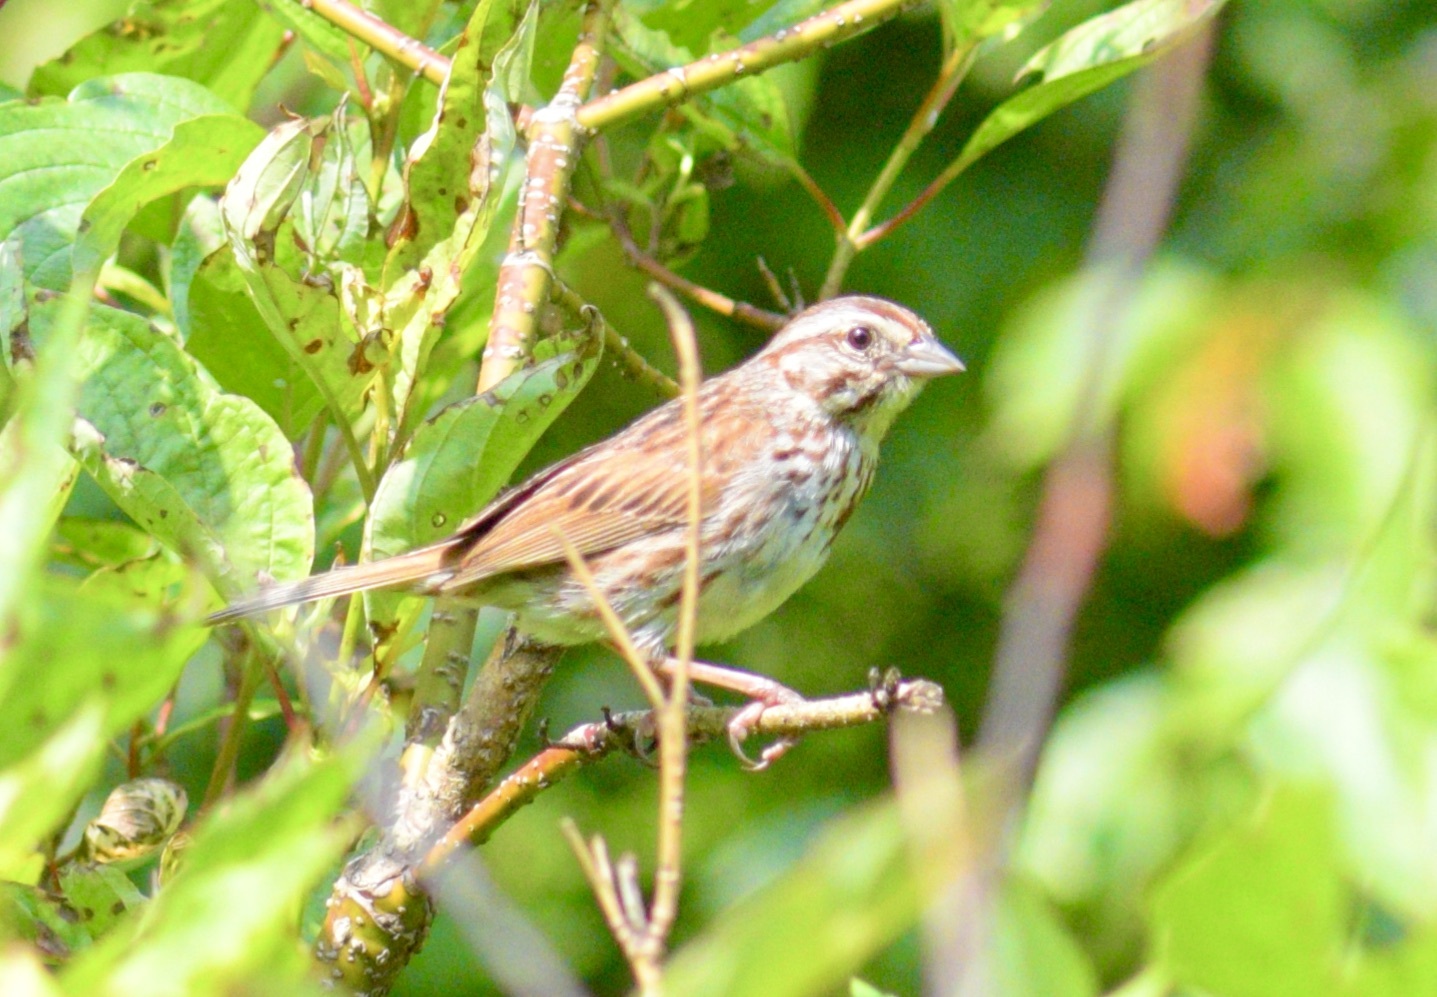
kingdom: Animalia
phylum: Chordata
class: Aves
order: Passeriformes
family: Passerellidae
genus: Melospiza
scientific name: Melospiza melodia
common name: Song sparrow
